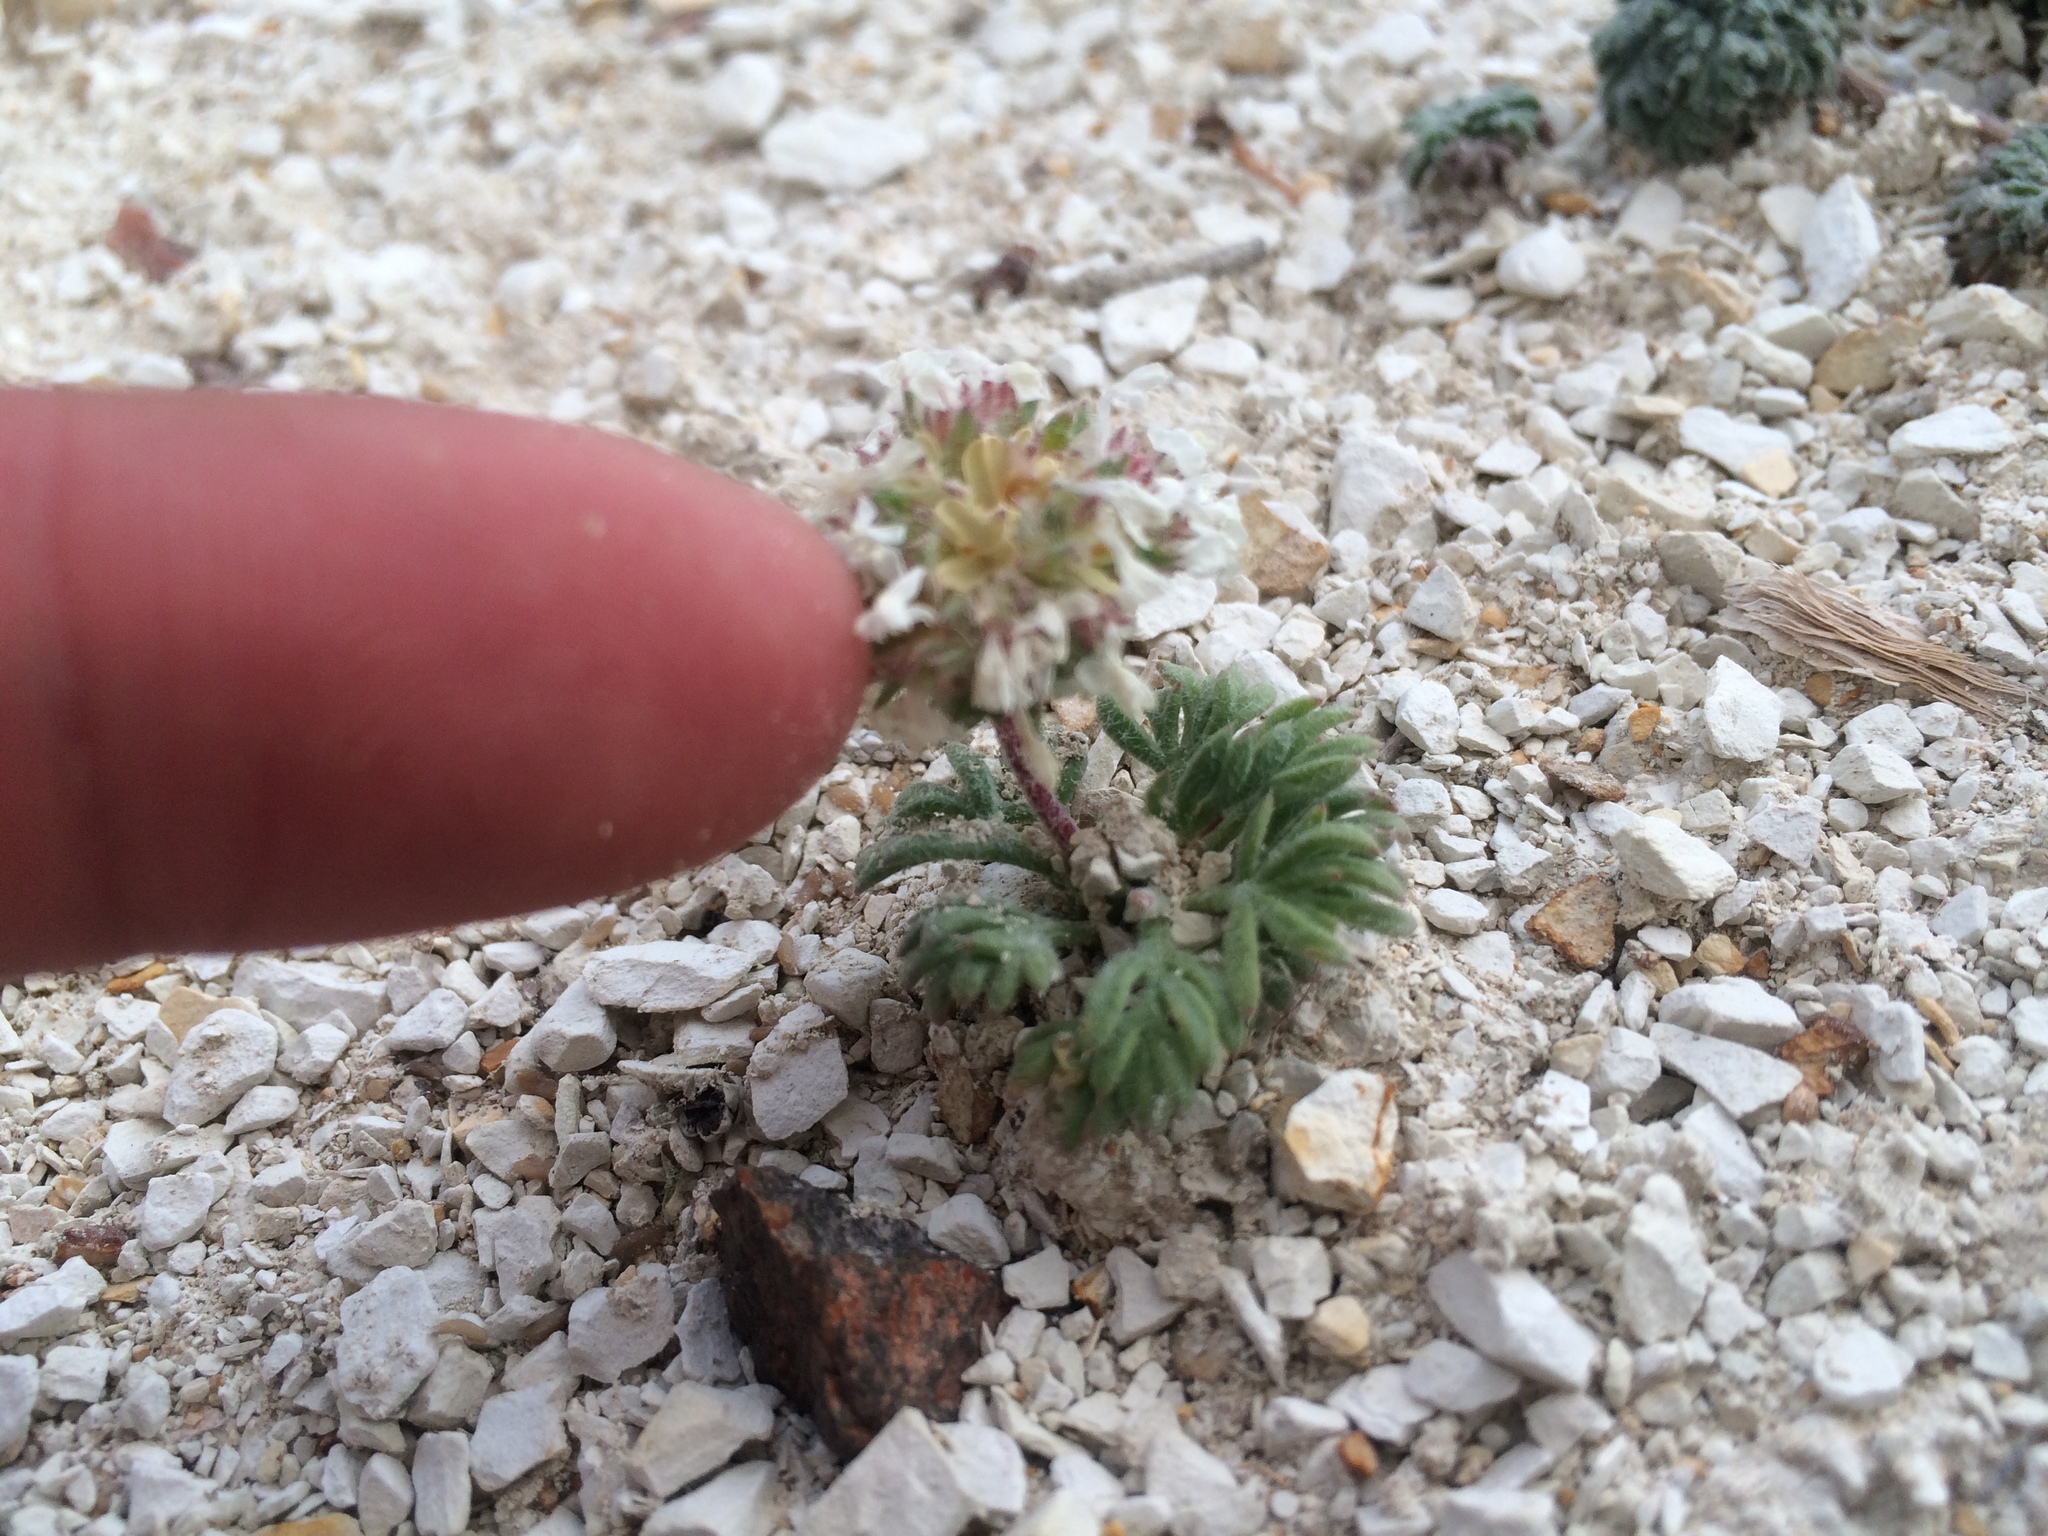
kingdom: Plantae
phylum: Tracheophyta
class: Magnoliopsida
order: Ericales
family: Polemoniaceae
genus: Ipomopsis
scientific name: Ipomopsis congesta
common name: Ball-head gilia
